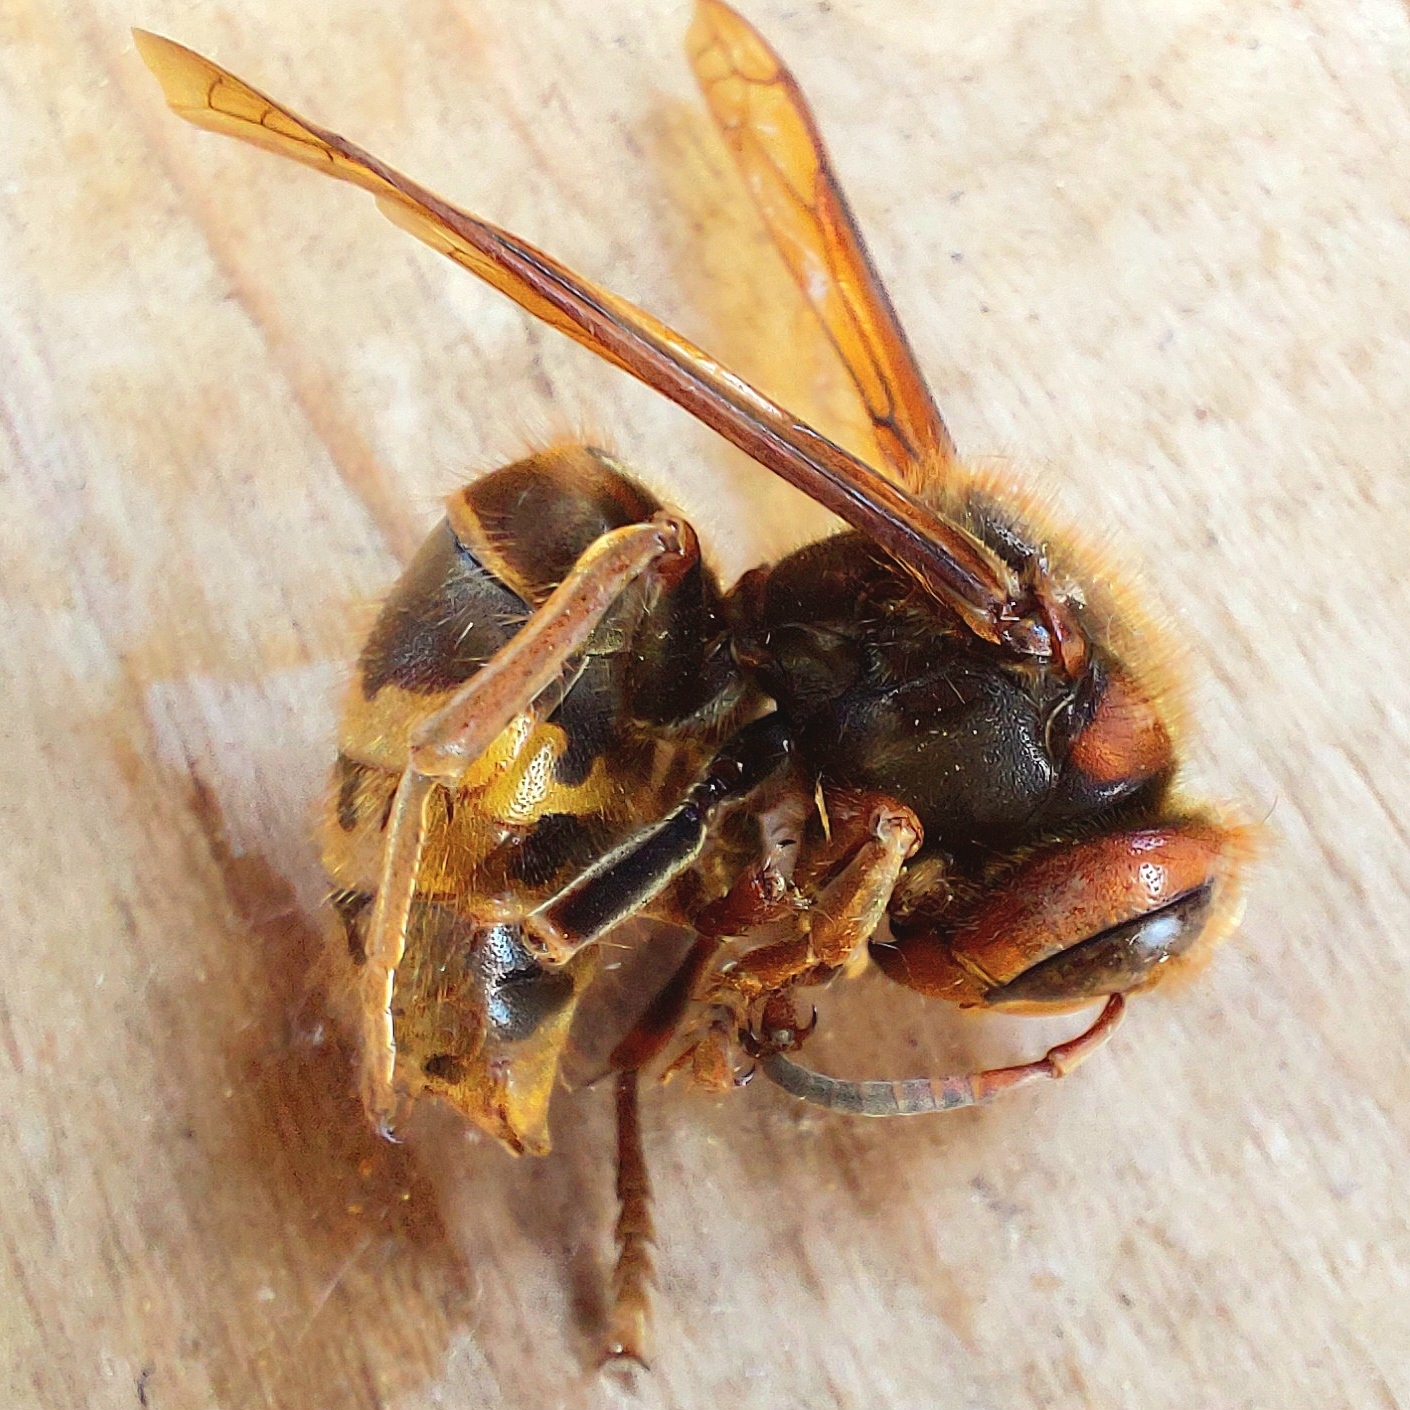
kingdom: Animalia
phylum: Arthropoda
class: Insecta
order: Hymenoptera
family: Vespidae
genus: Vespa
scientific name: Vespa crabro
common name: Hornet
